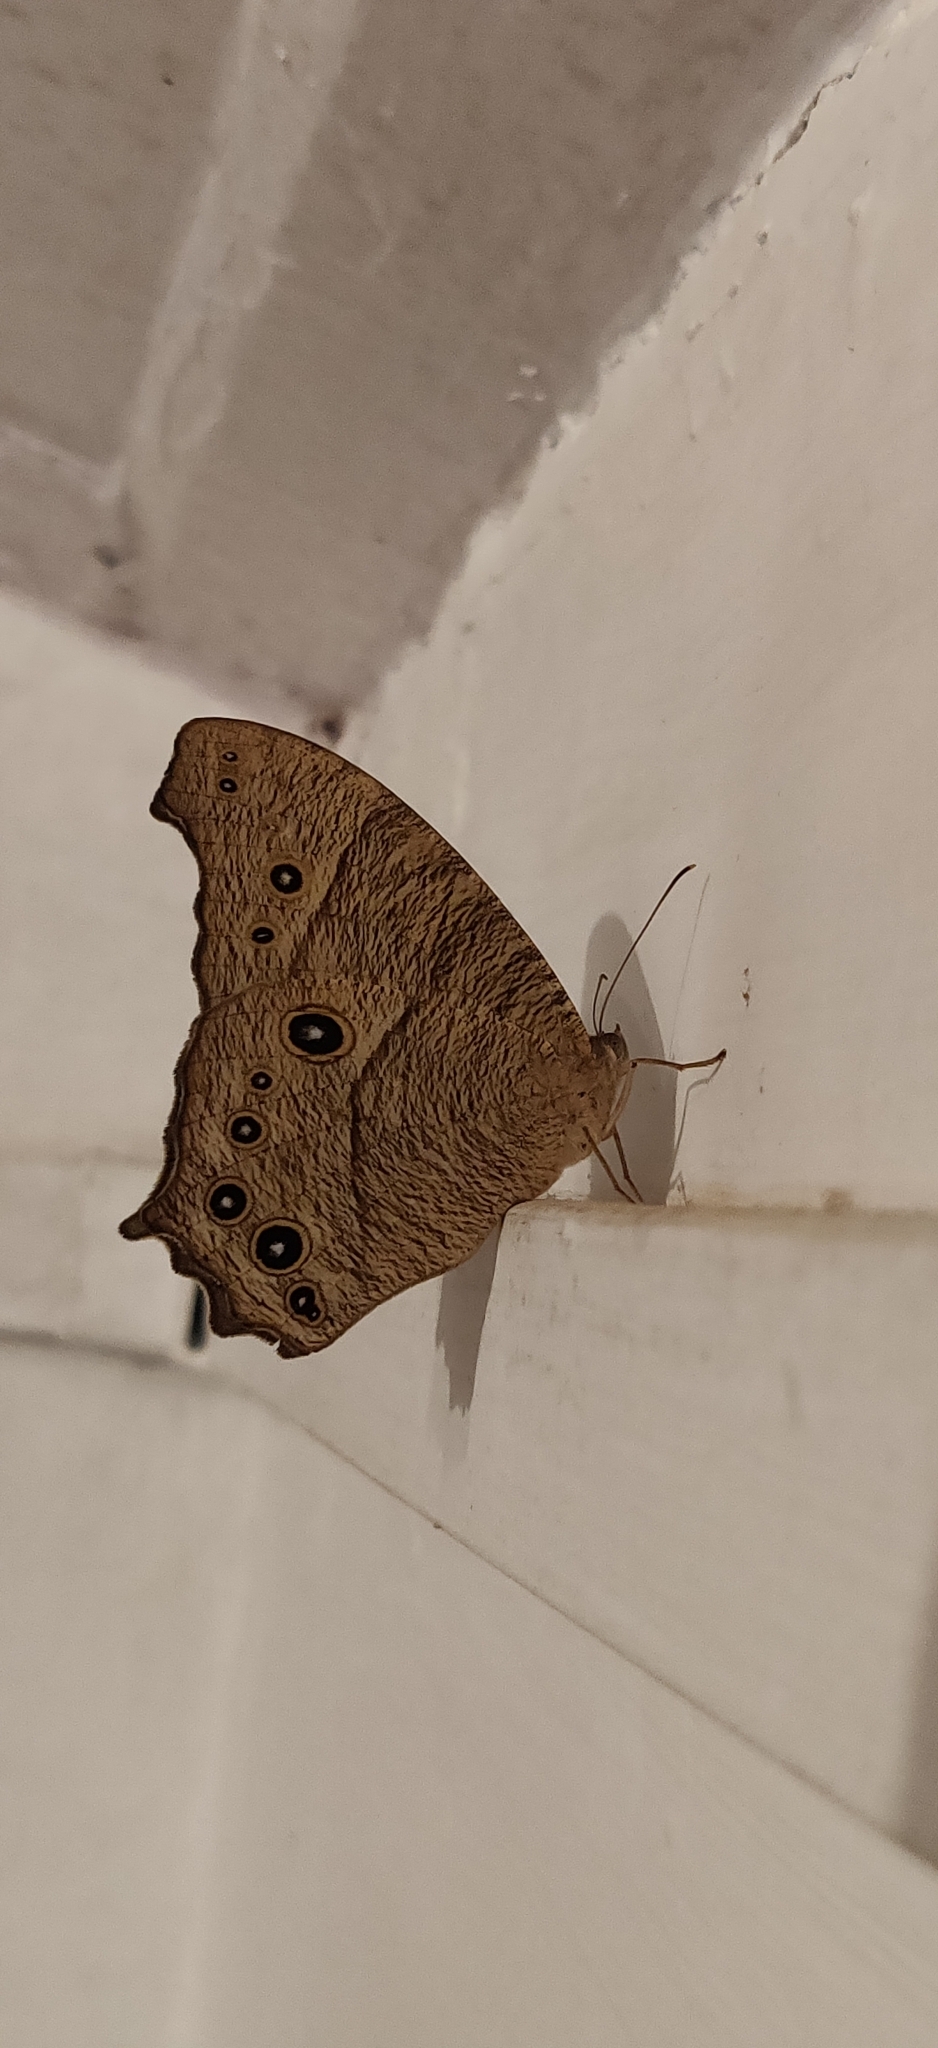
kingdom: Animalia
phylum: Arthropoda
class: Insecta
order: Lepidoptera
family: Nymphalidae
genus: Melanitis
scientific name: Melanitis leda
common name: Twilight brown
